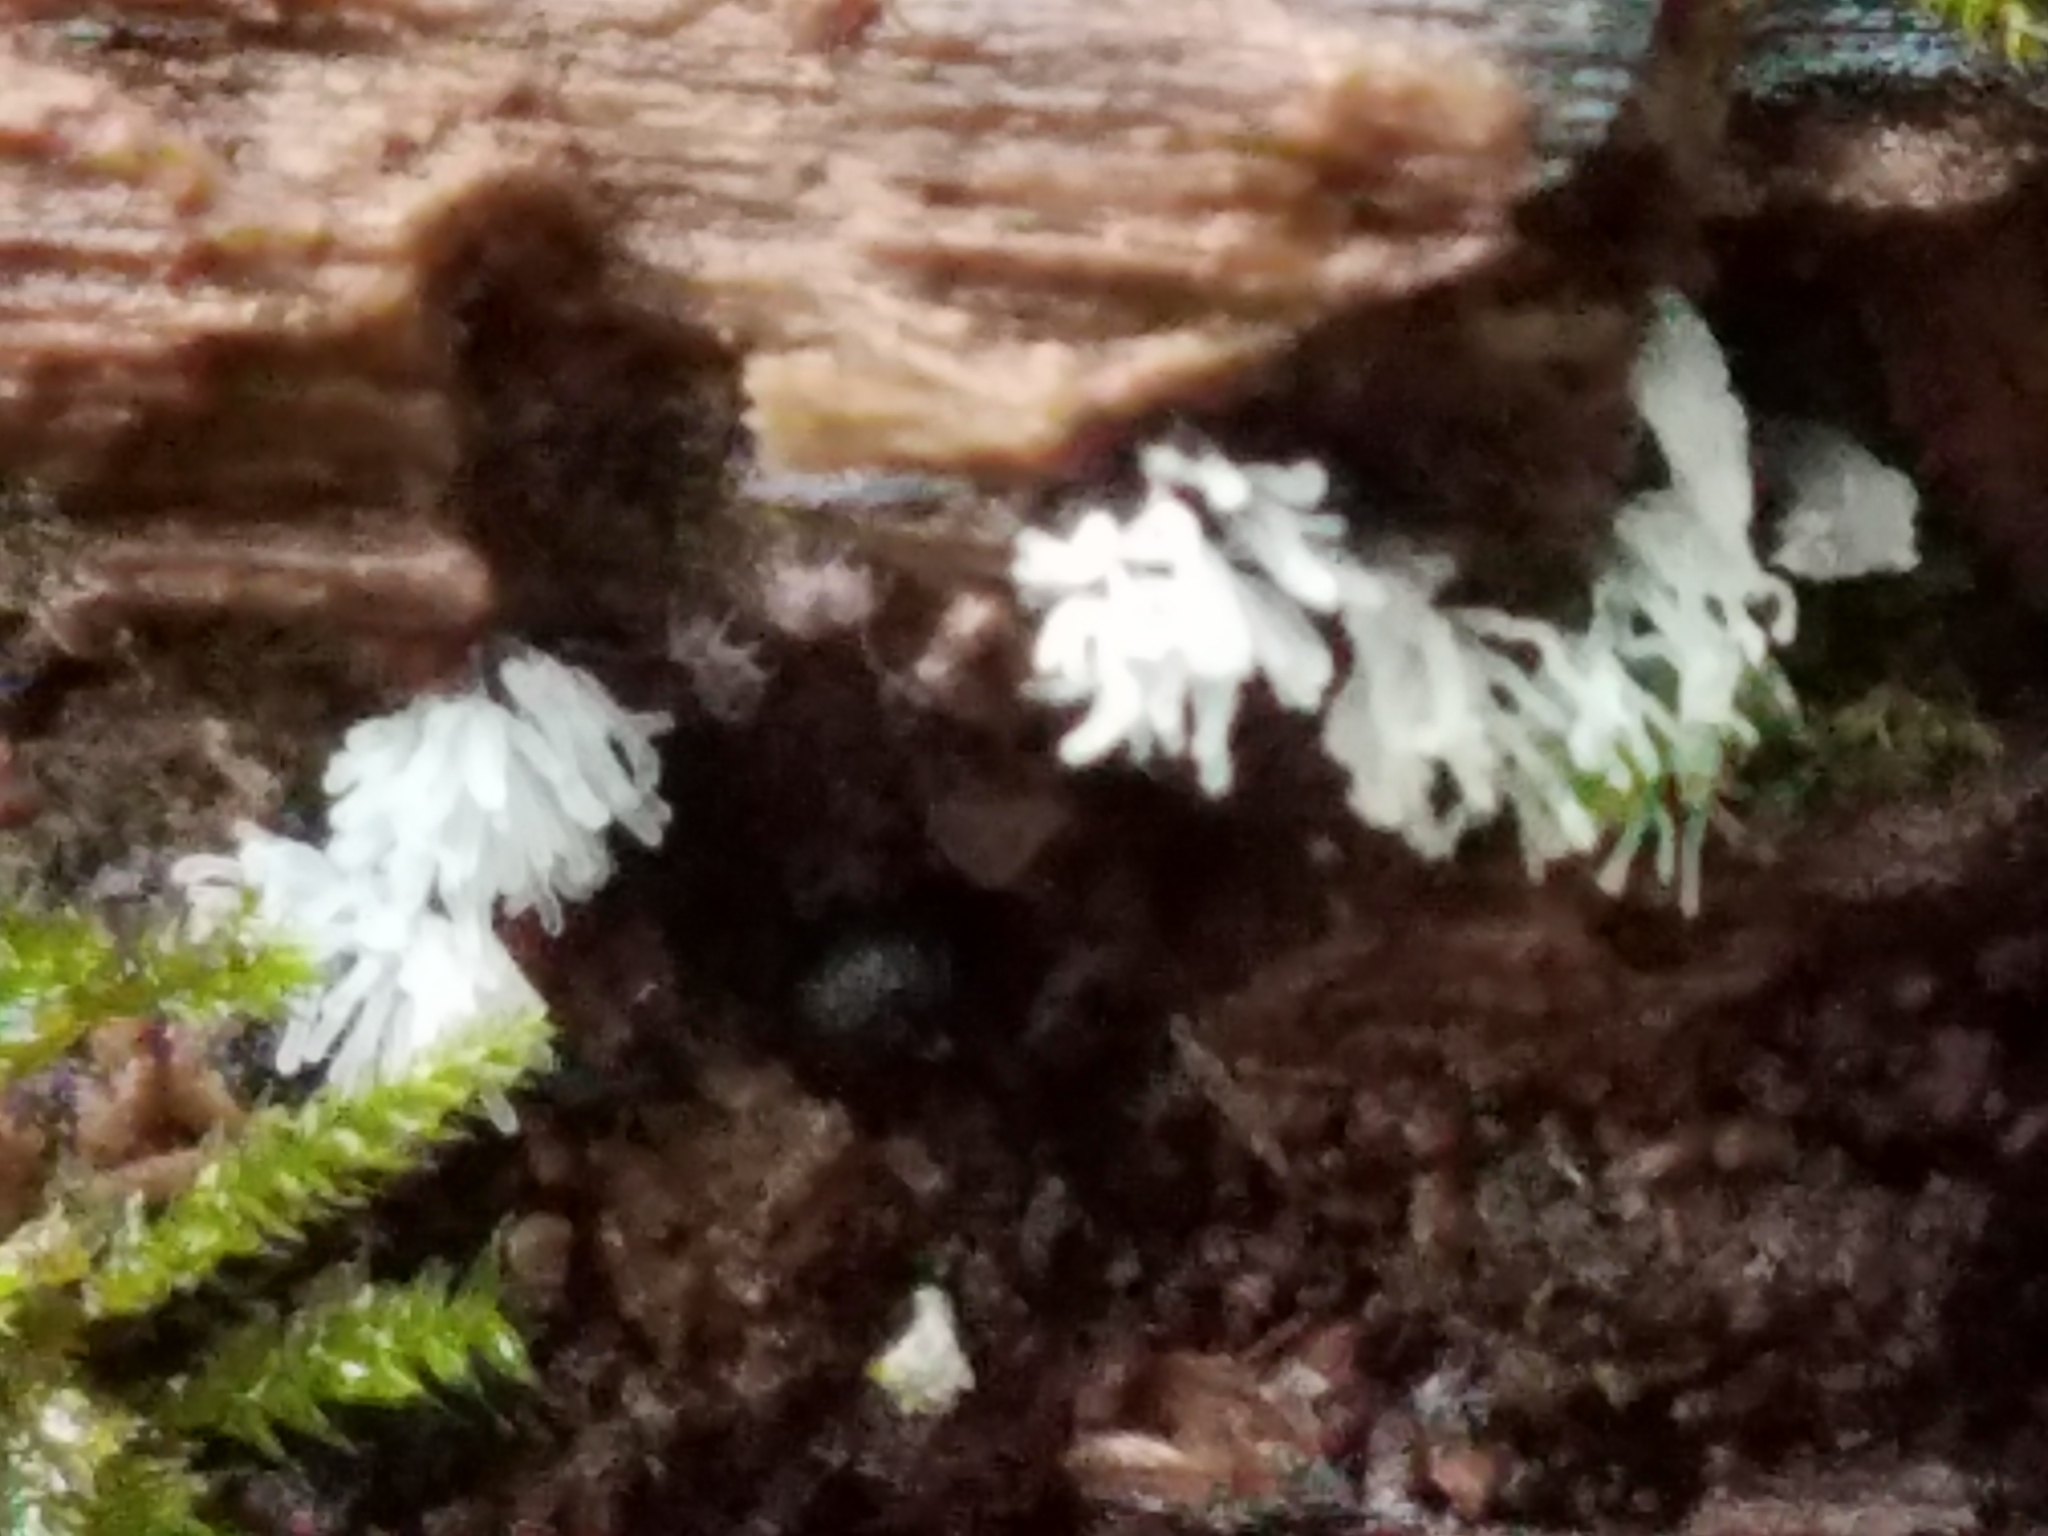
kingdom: Protozoa
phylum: Mycetozoa
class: Protosteliomycetes
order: Ceratiomyxales
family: Ceratiomyxaceae
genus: Ceratiomyxa
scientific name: Ceratiomyxa fruticulosa
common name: Honeycomb coral slime mold
